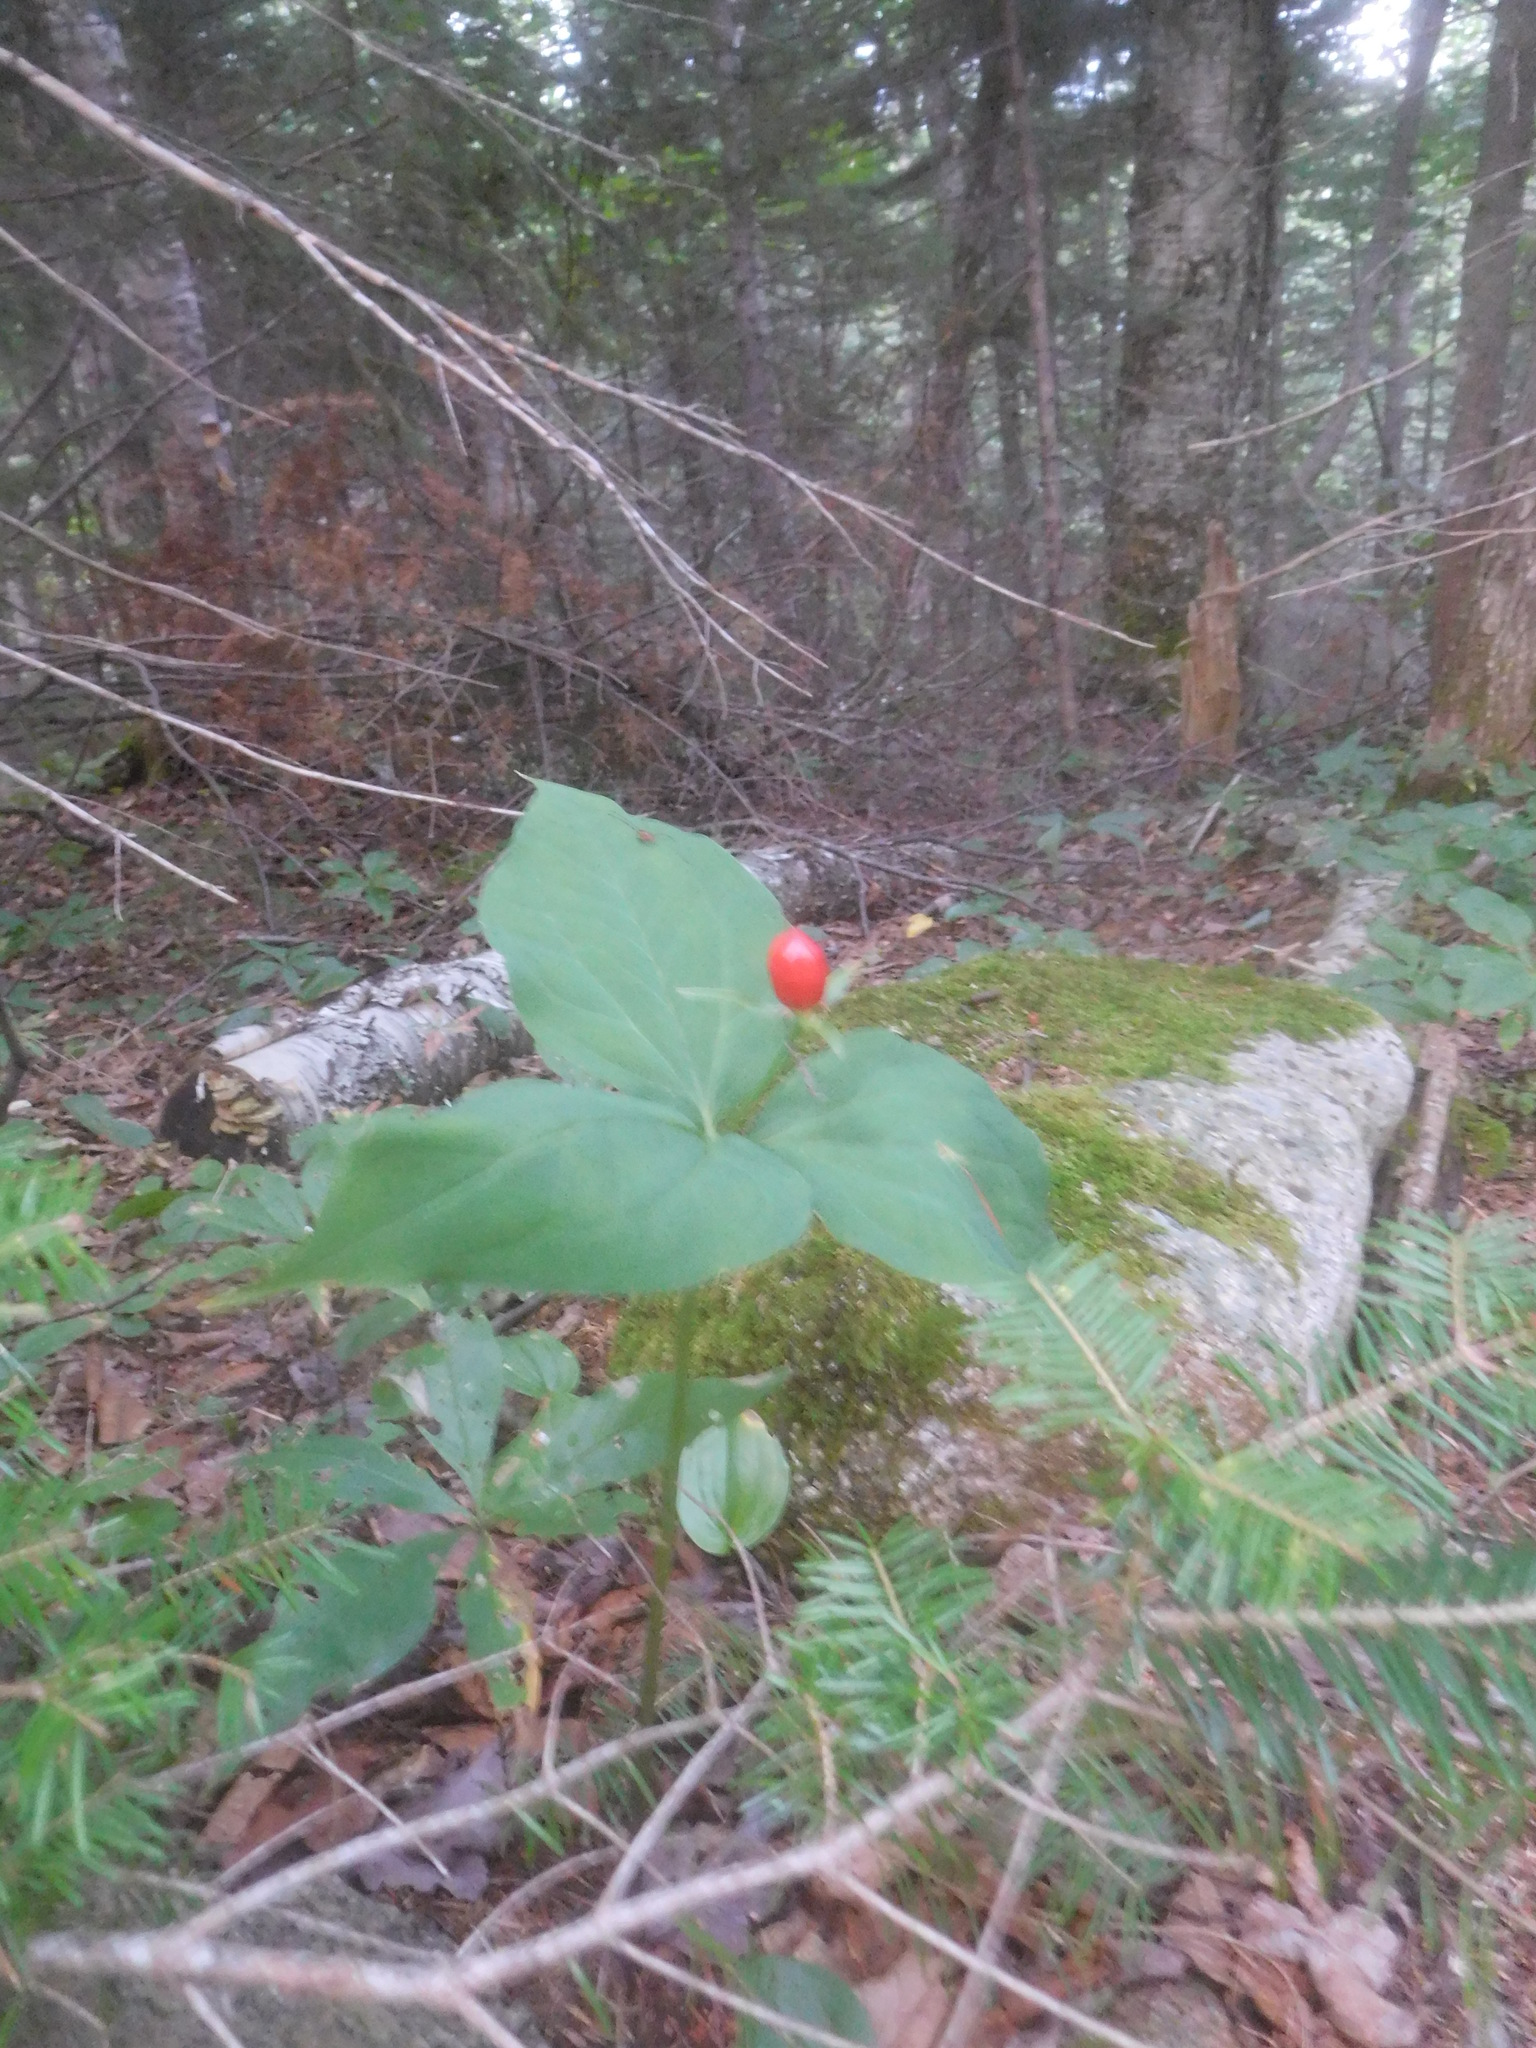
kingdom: Plantae
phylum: Tracheophyta
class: Liliopsida
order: Liliales
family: Melanthiaceae
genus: Trillium
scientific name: Trillium undulatum
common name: Paint trillium
